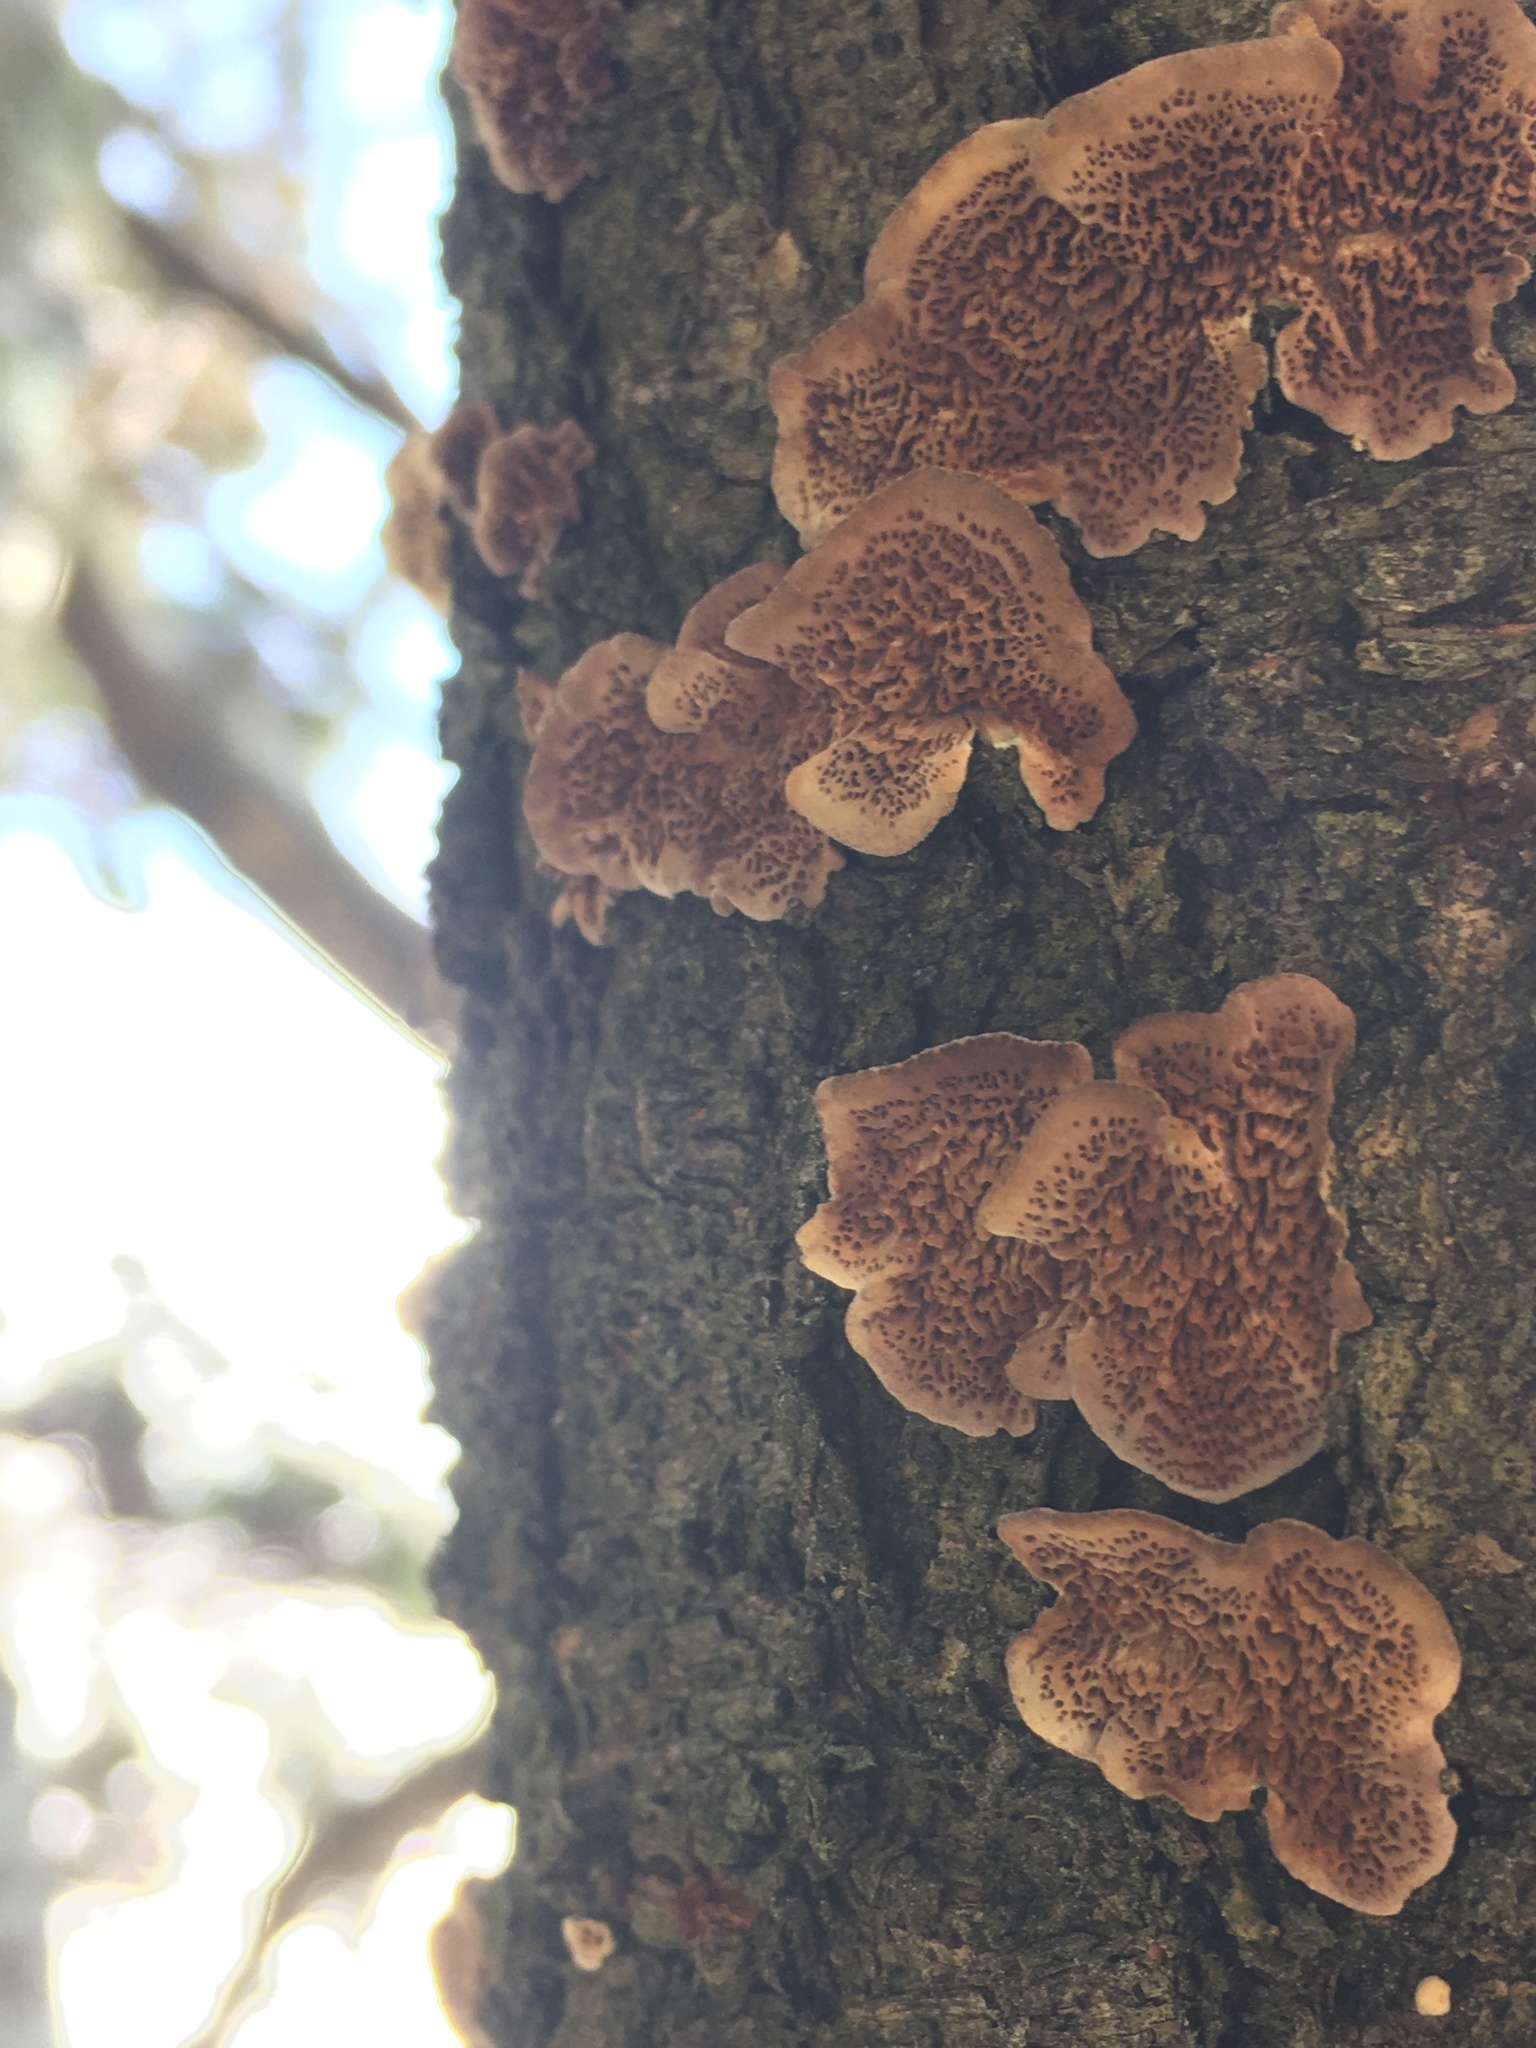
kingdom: Fungi
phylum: Basidiomycota
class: Agaricomycetes
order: Hymenochaetales
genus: Trichaptum
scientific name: Trichaptum biforme
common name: Violet-toothed polypore
